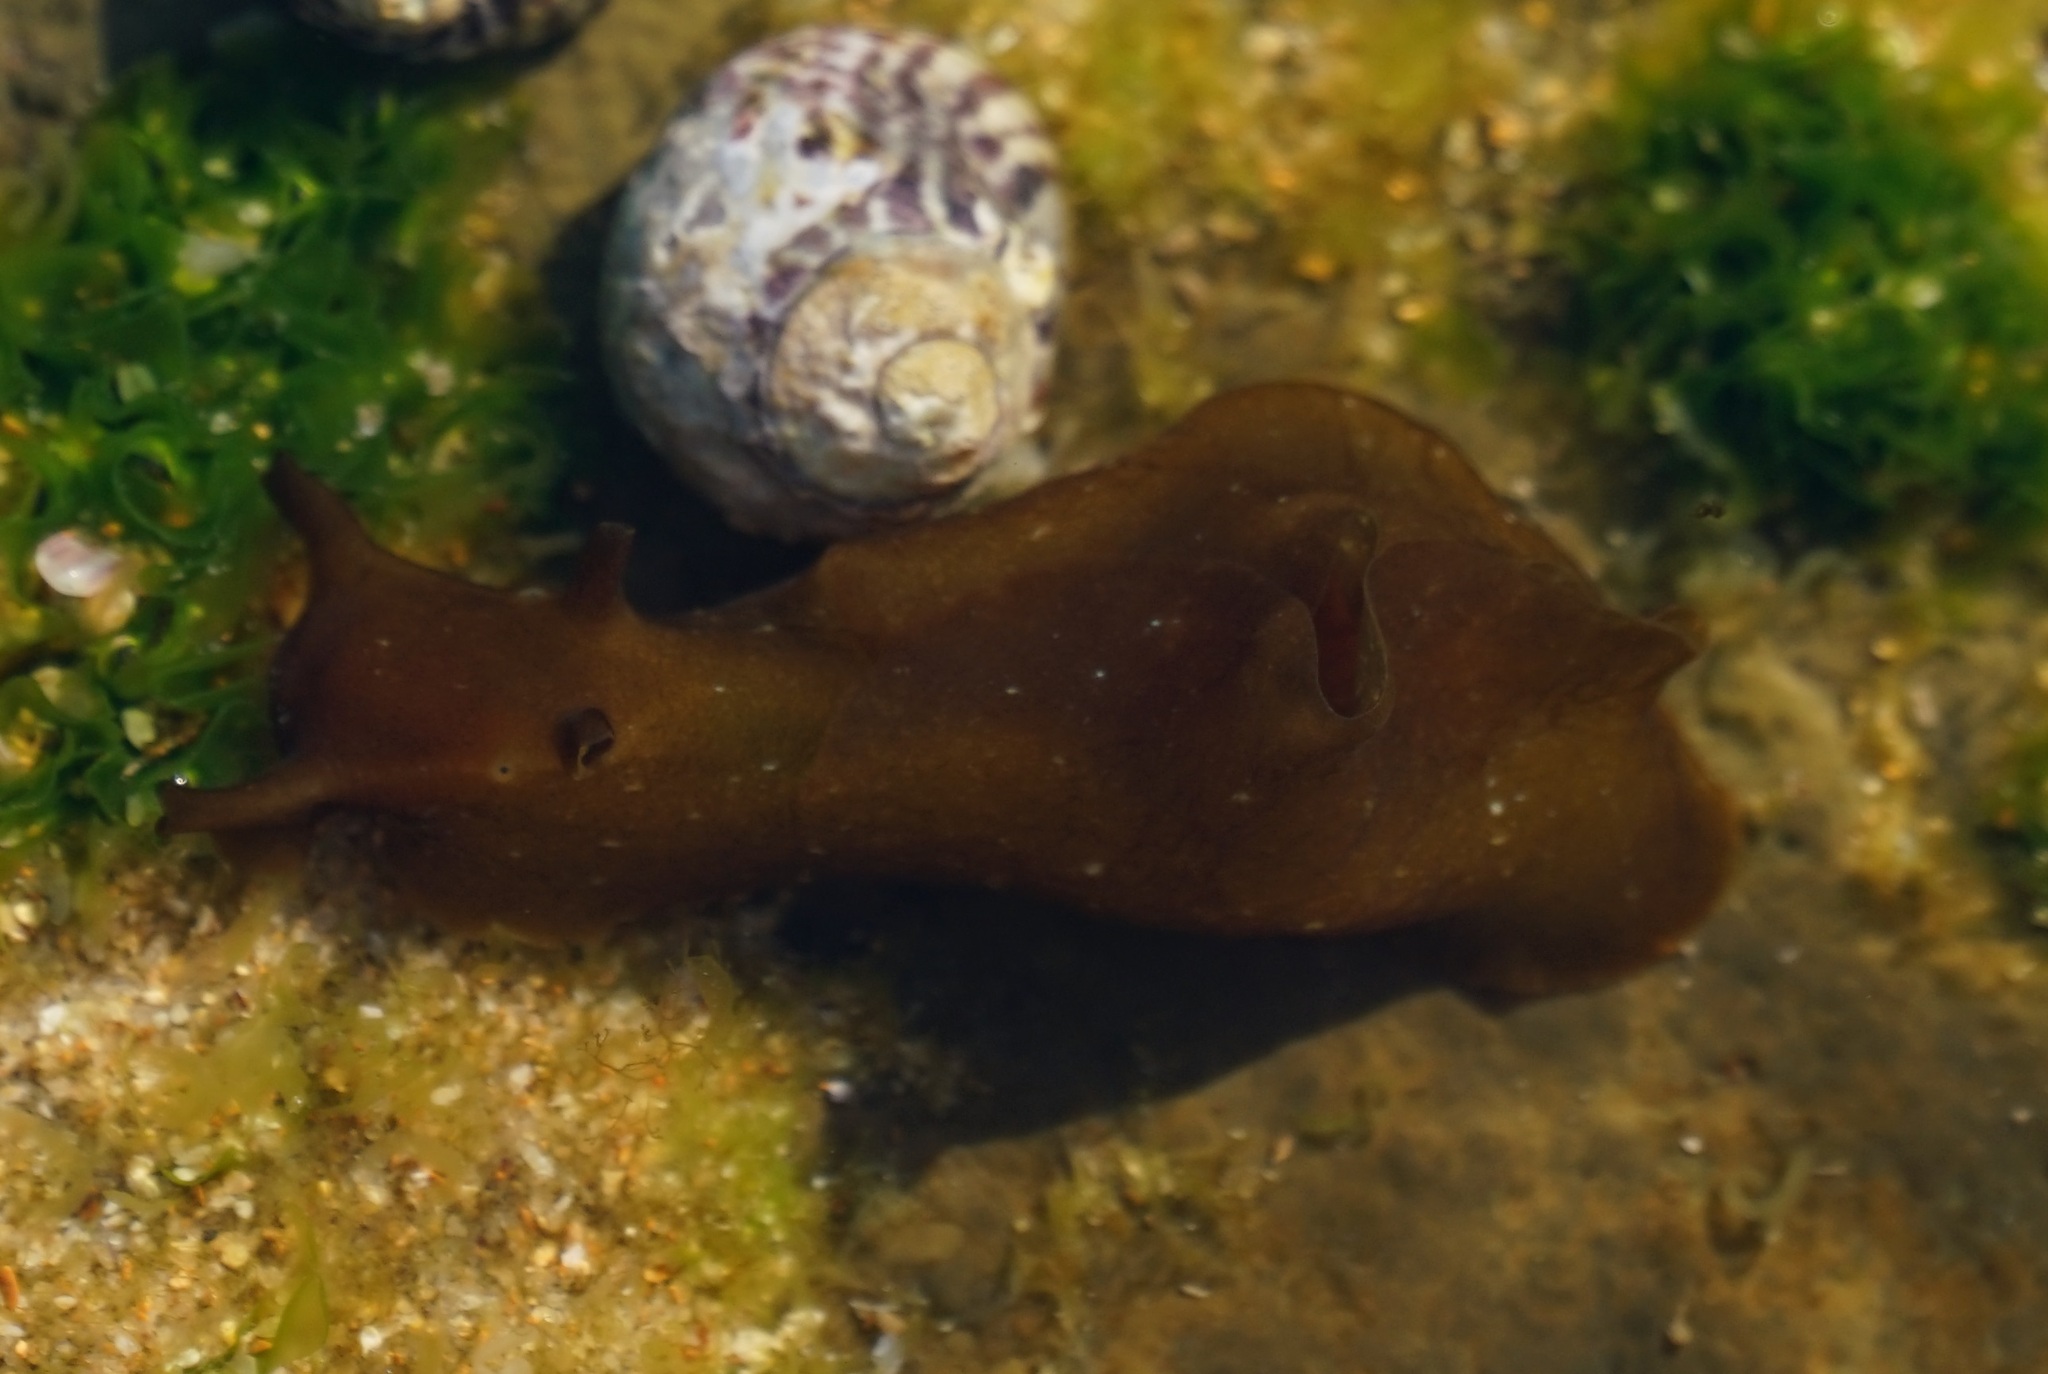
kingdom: Animalia
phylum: Mollusca
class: Gastropoda
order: Aplysiida
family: Aplysiidae
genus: Aplysia
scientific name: Aplysia juliana
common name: Walking sea hare
